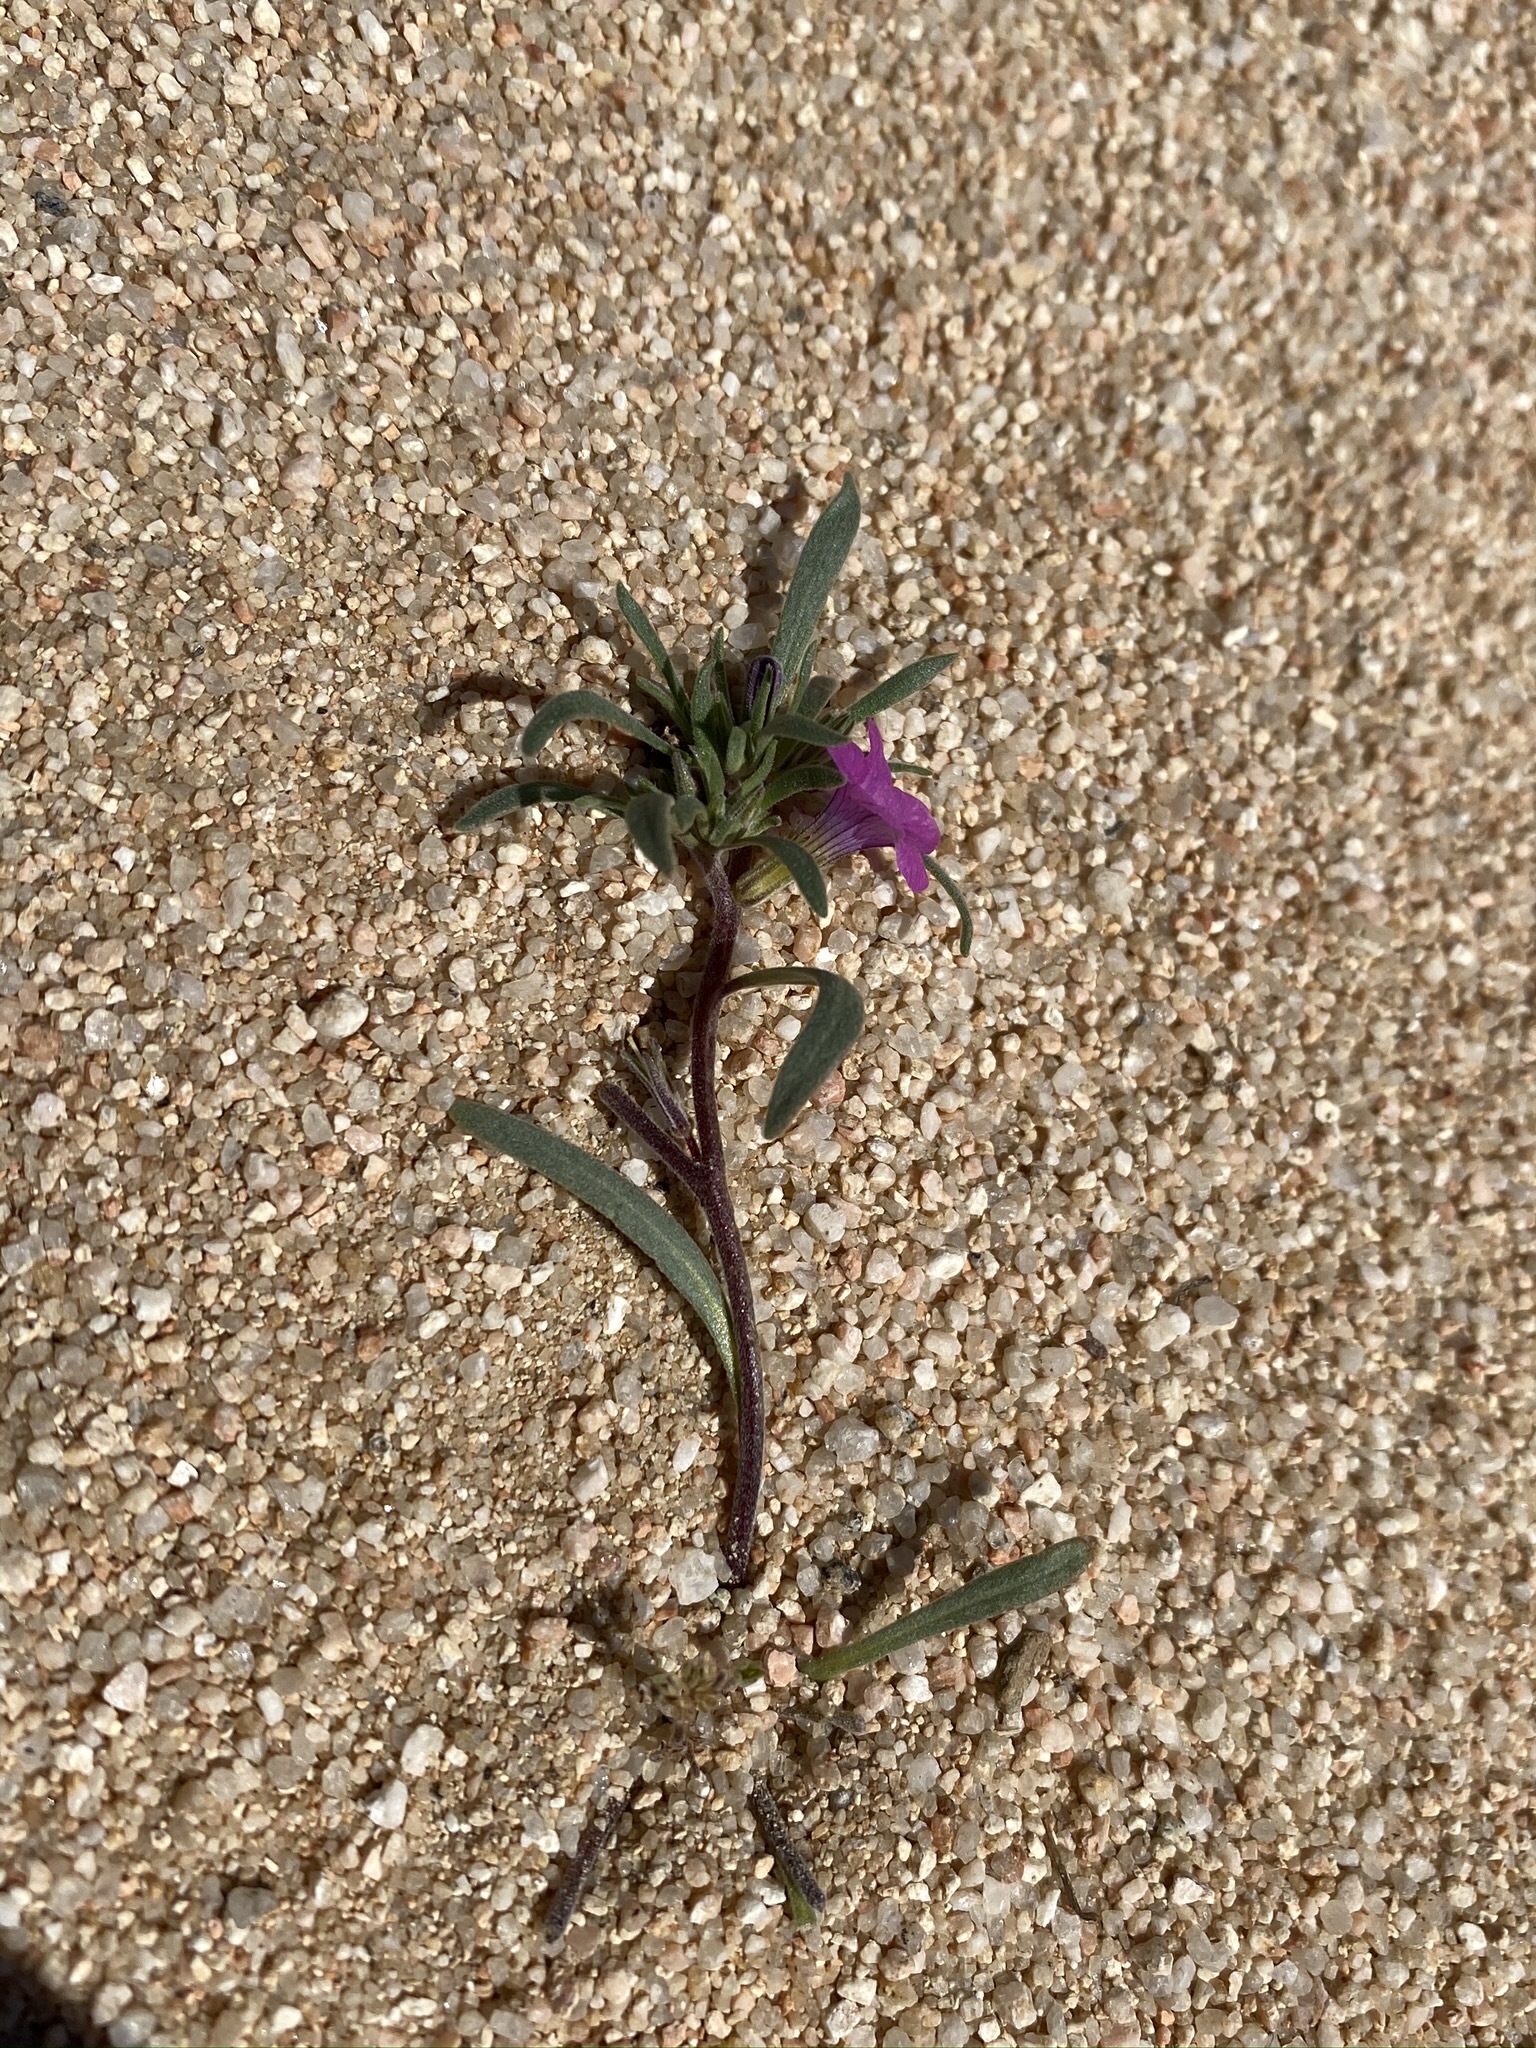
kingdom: Plantae
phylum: Tracheophyta
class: Magnoliopsida
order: Boraginales
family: Namaceae
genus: Nama
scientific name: Nama demissa
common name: Leafy nama
